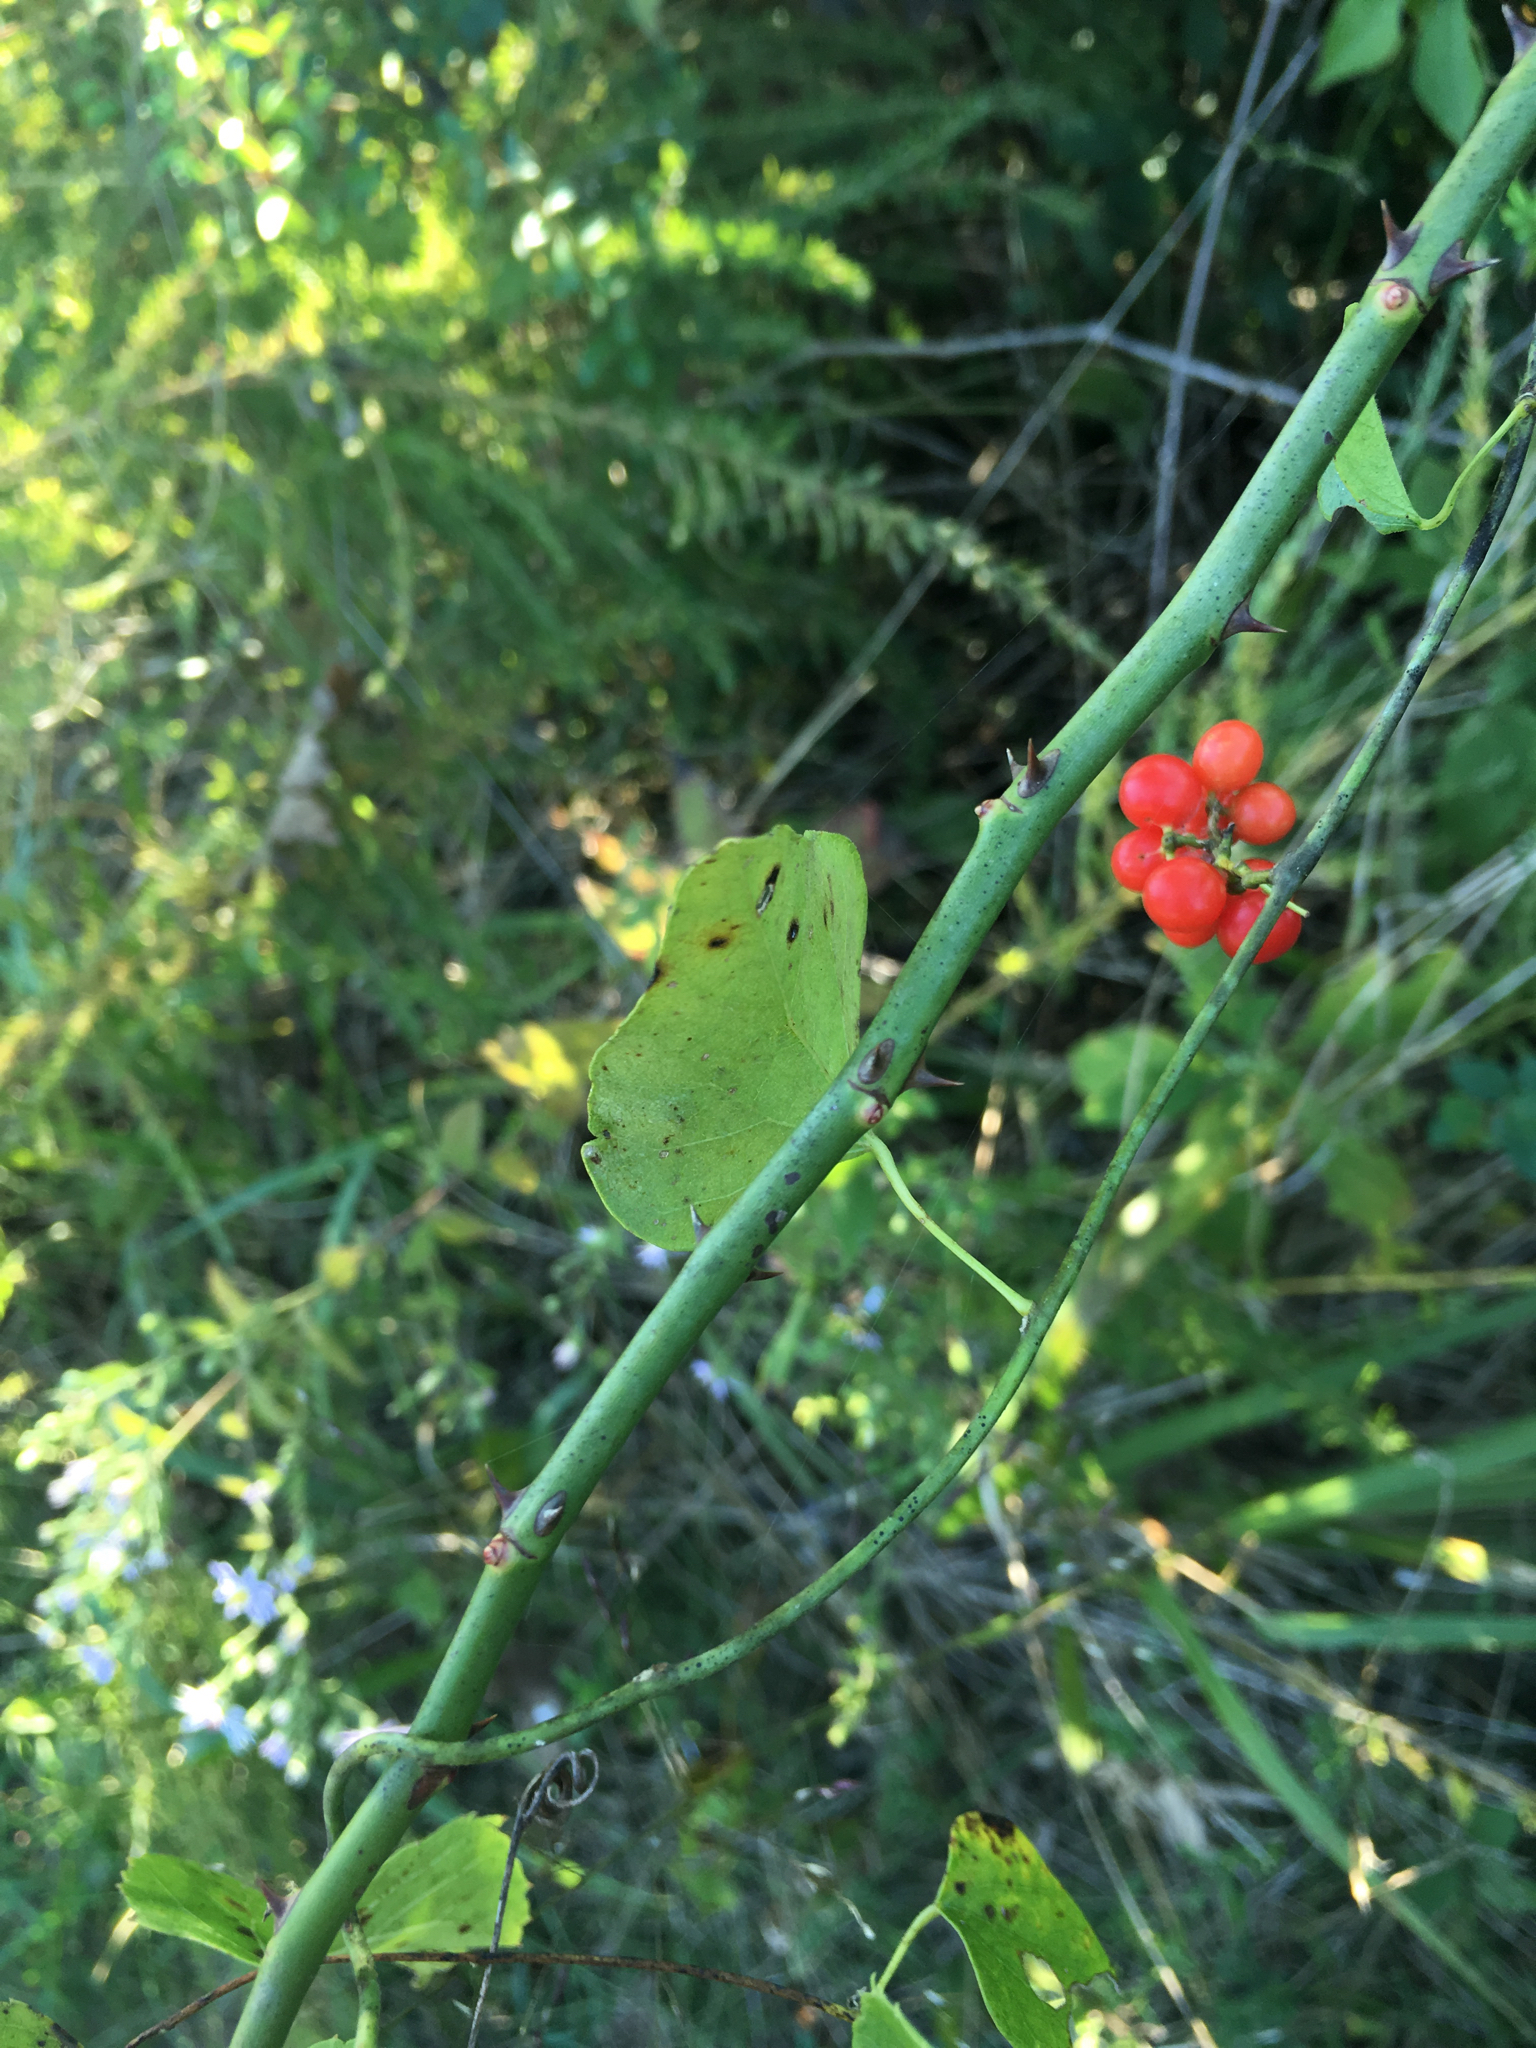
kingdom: Plantae
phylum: Tracheophyta
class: Magnoliopsida
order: Ranunculales
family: Menispermaceae
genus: Cocculus
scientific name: Cocculus carolinus
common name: Carolina moonseed
